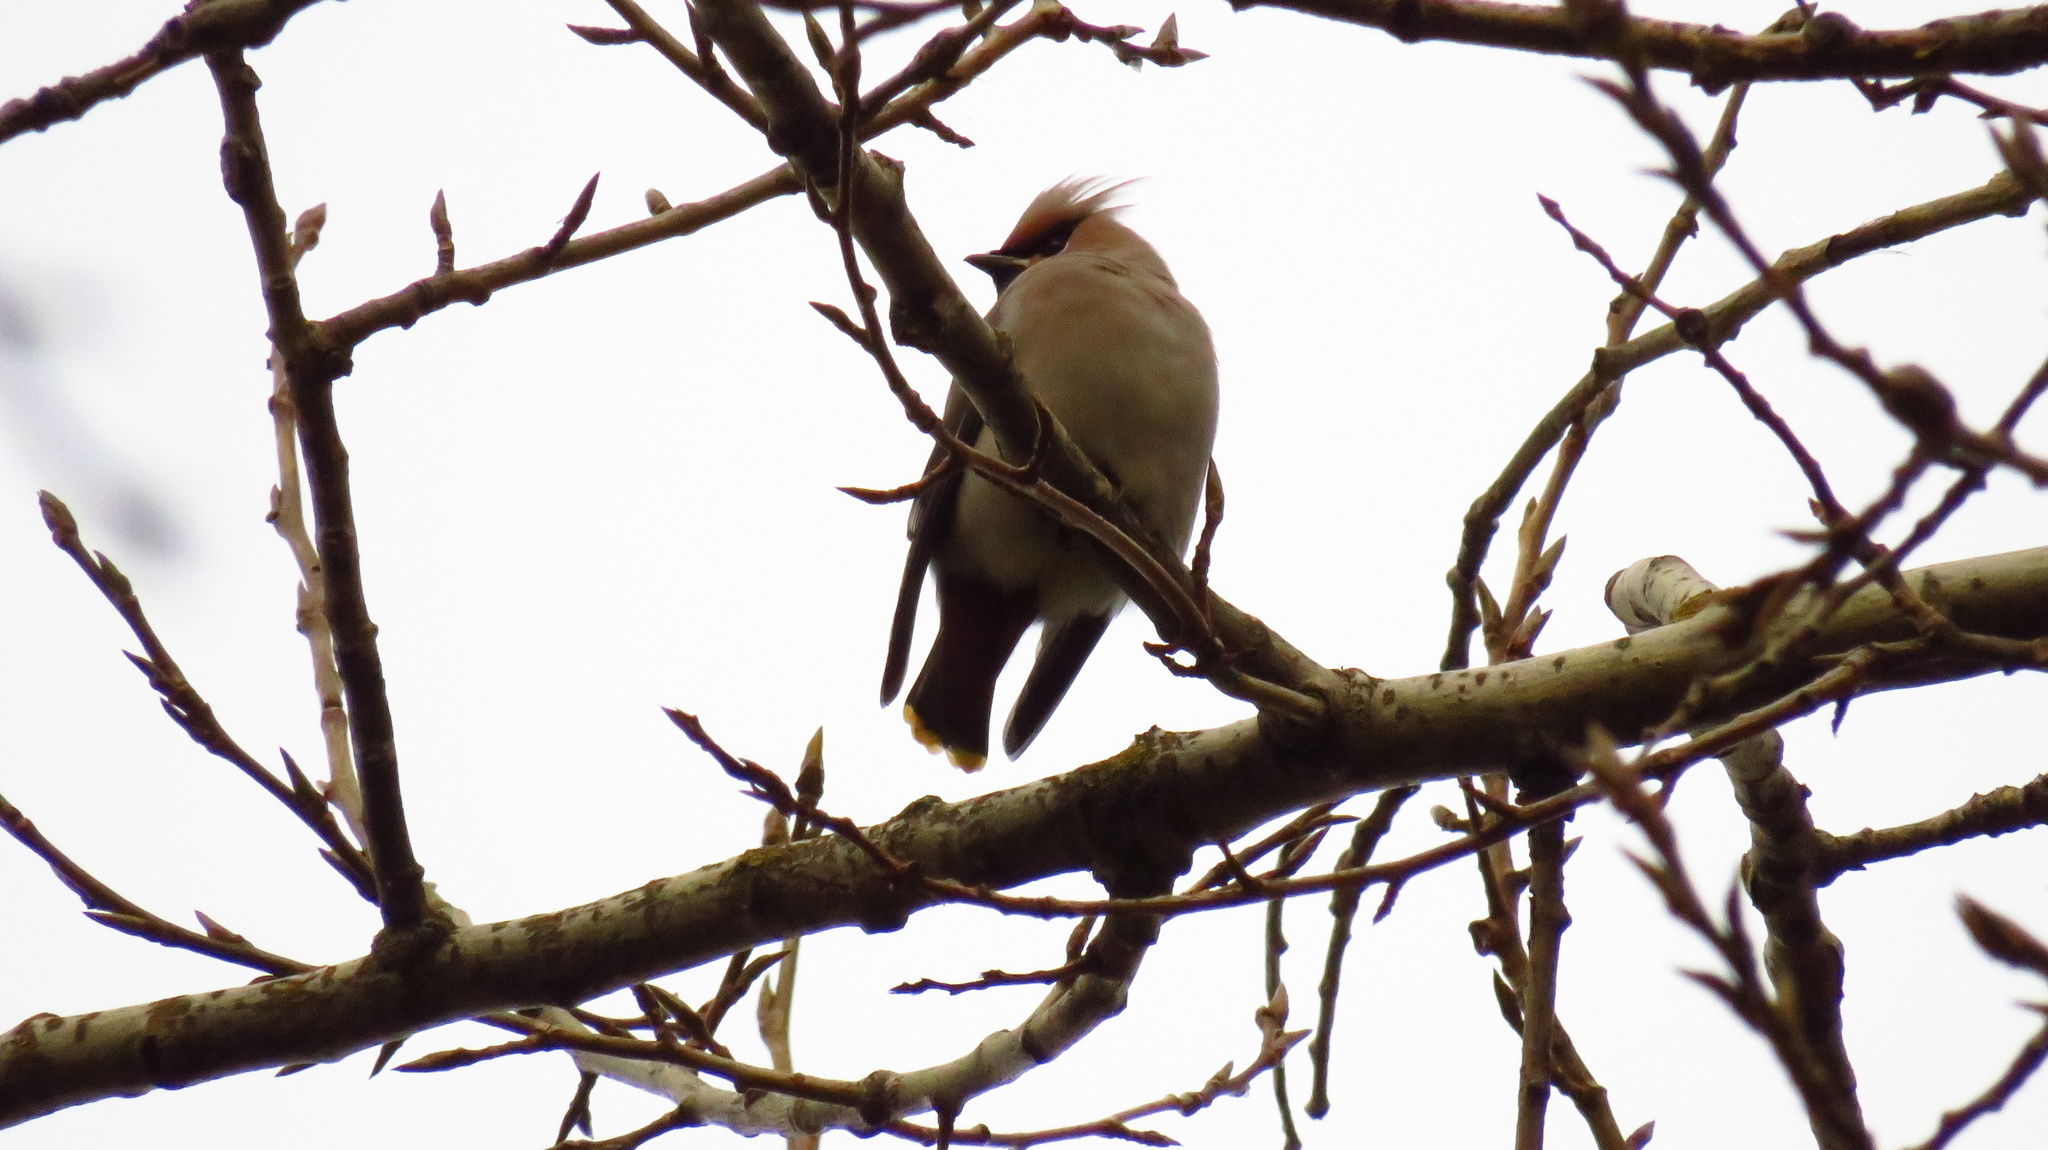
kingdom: Animalia
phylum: Chordata
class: Aves
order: Passeriformes
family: Bombycillidae
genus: Bombycilla
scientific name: Bombycilla garrulus
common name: Bohemian waxwing
